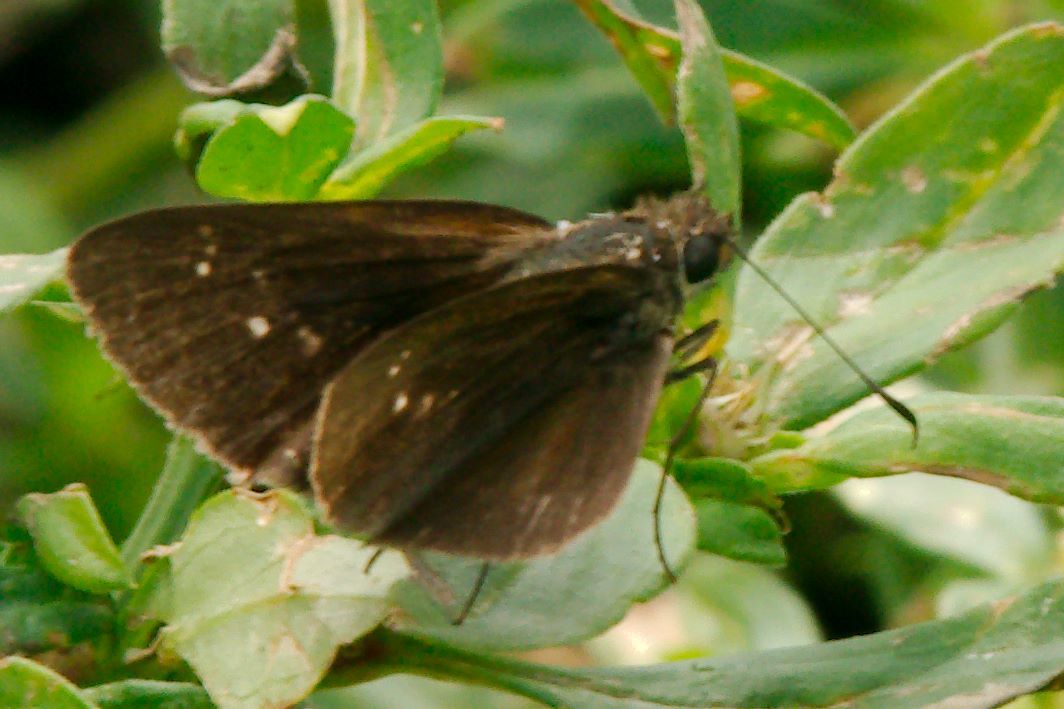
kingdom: Animalia
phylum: Arthropoda
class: Insecta
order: Lepidoptera
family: Hesperiidae
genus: Cymaenes
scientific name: Cymaenes tripunctus
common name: Dingy dotted skipper
